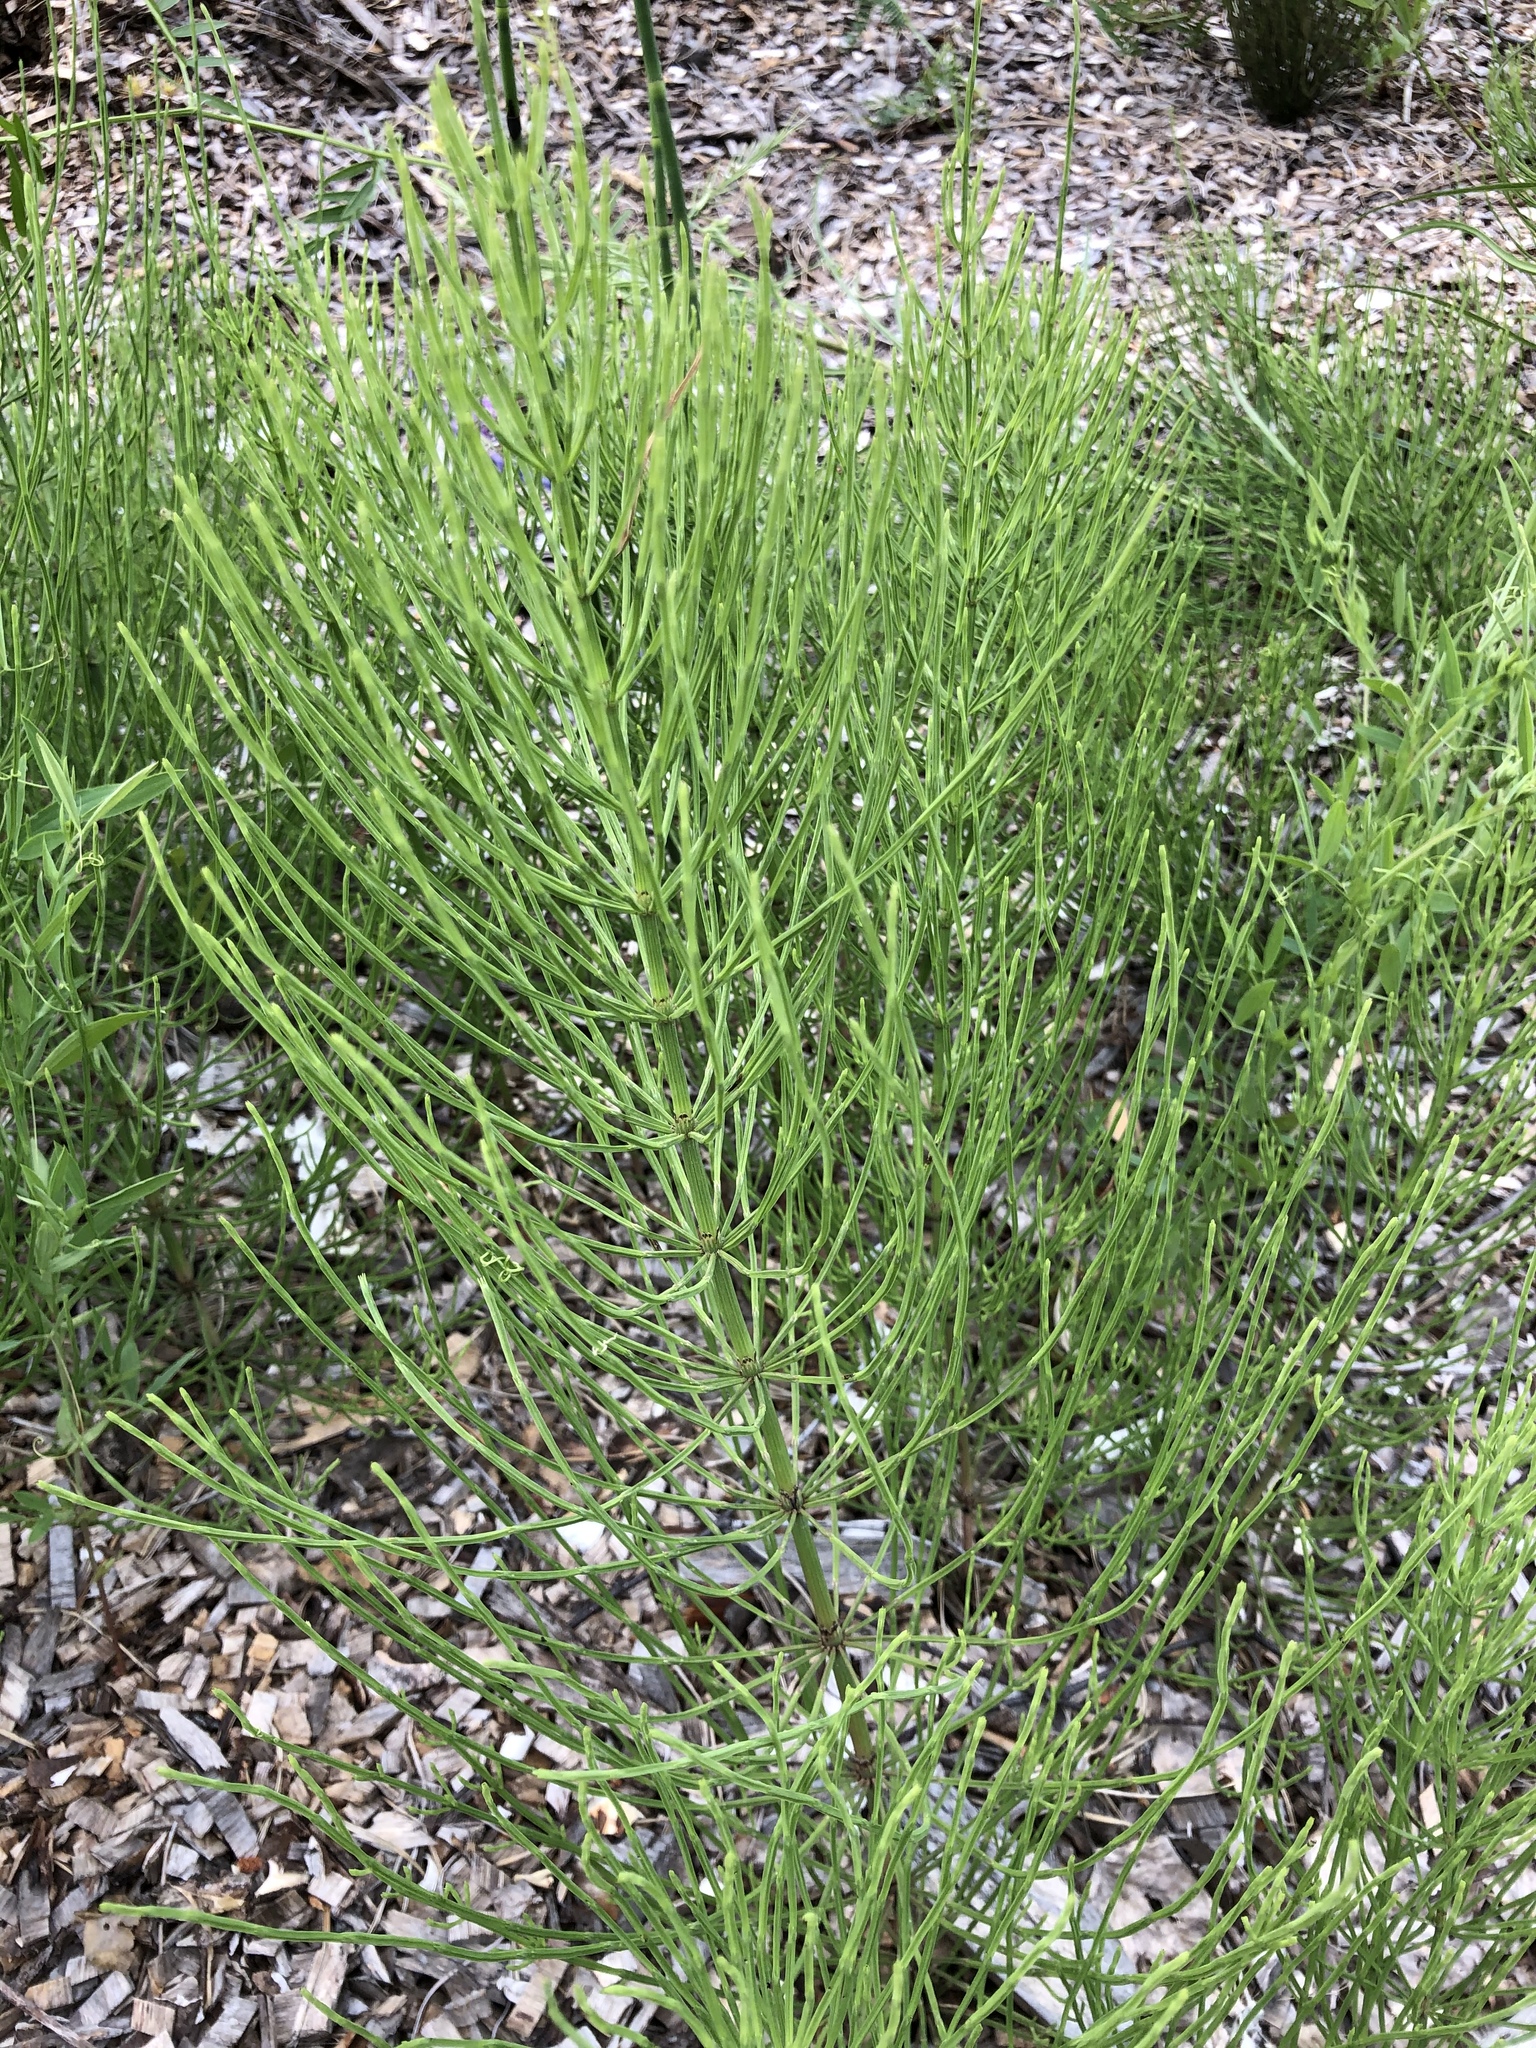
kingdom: Plantae
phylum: Tracheophyta
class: Polypodiopsida
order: Equisetales
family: Equisetaceae
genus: Equisetum
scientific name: Equisetum arvense
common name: Field horsetail
